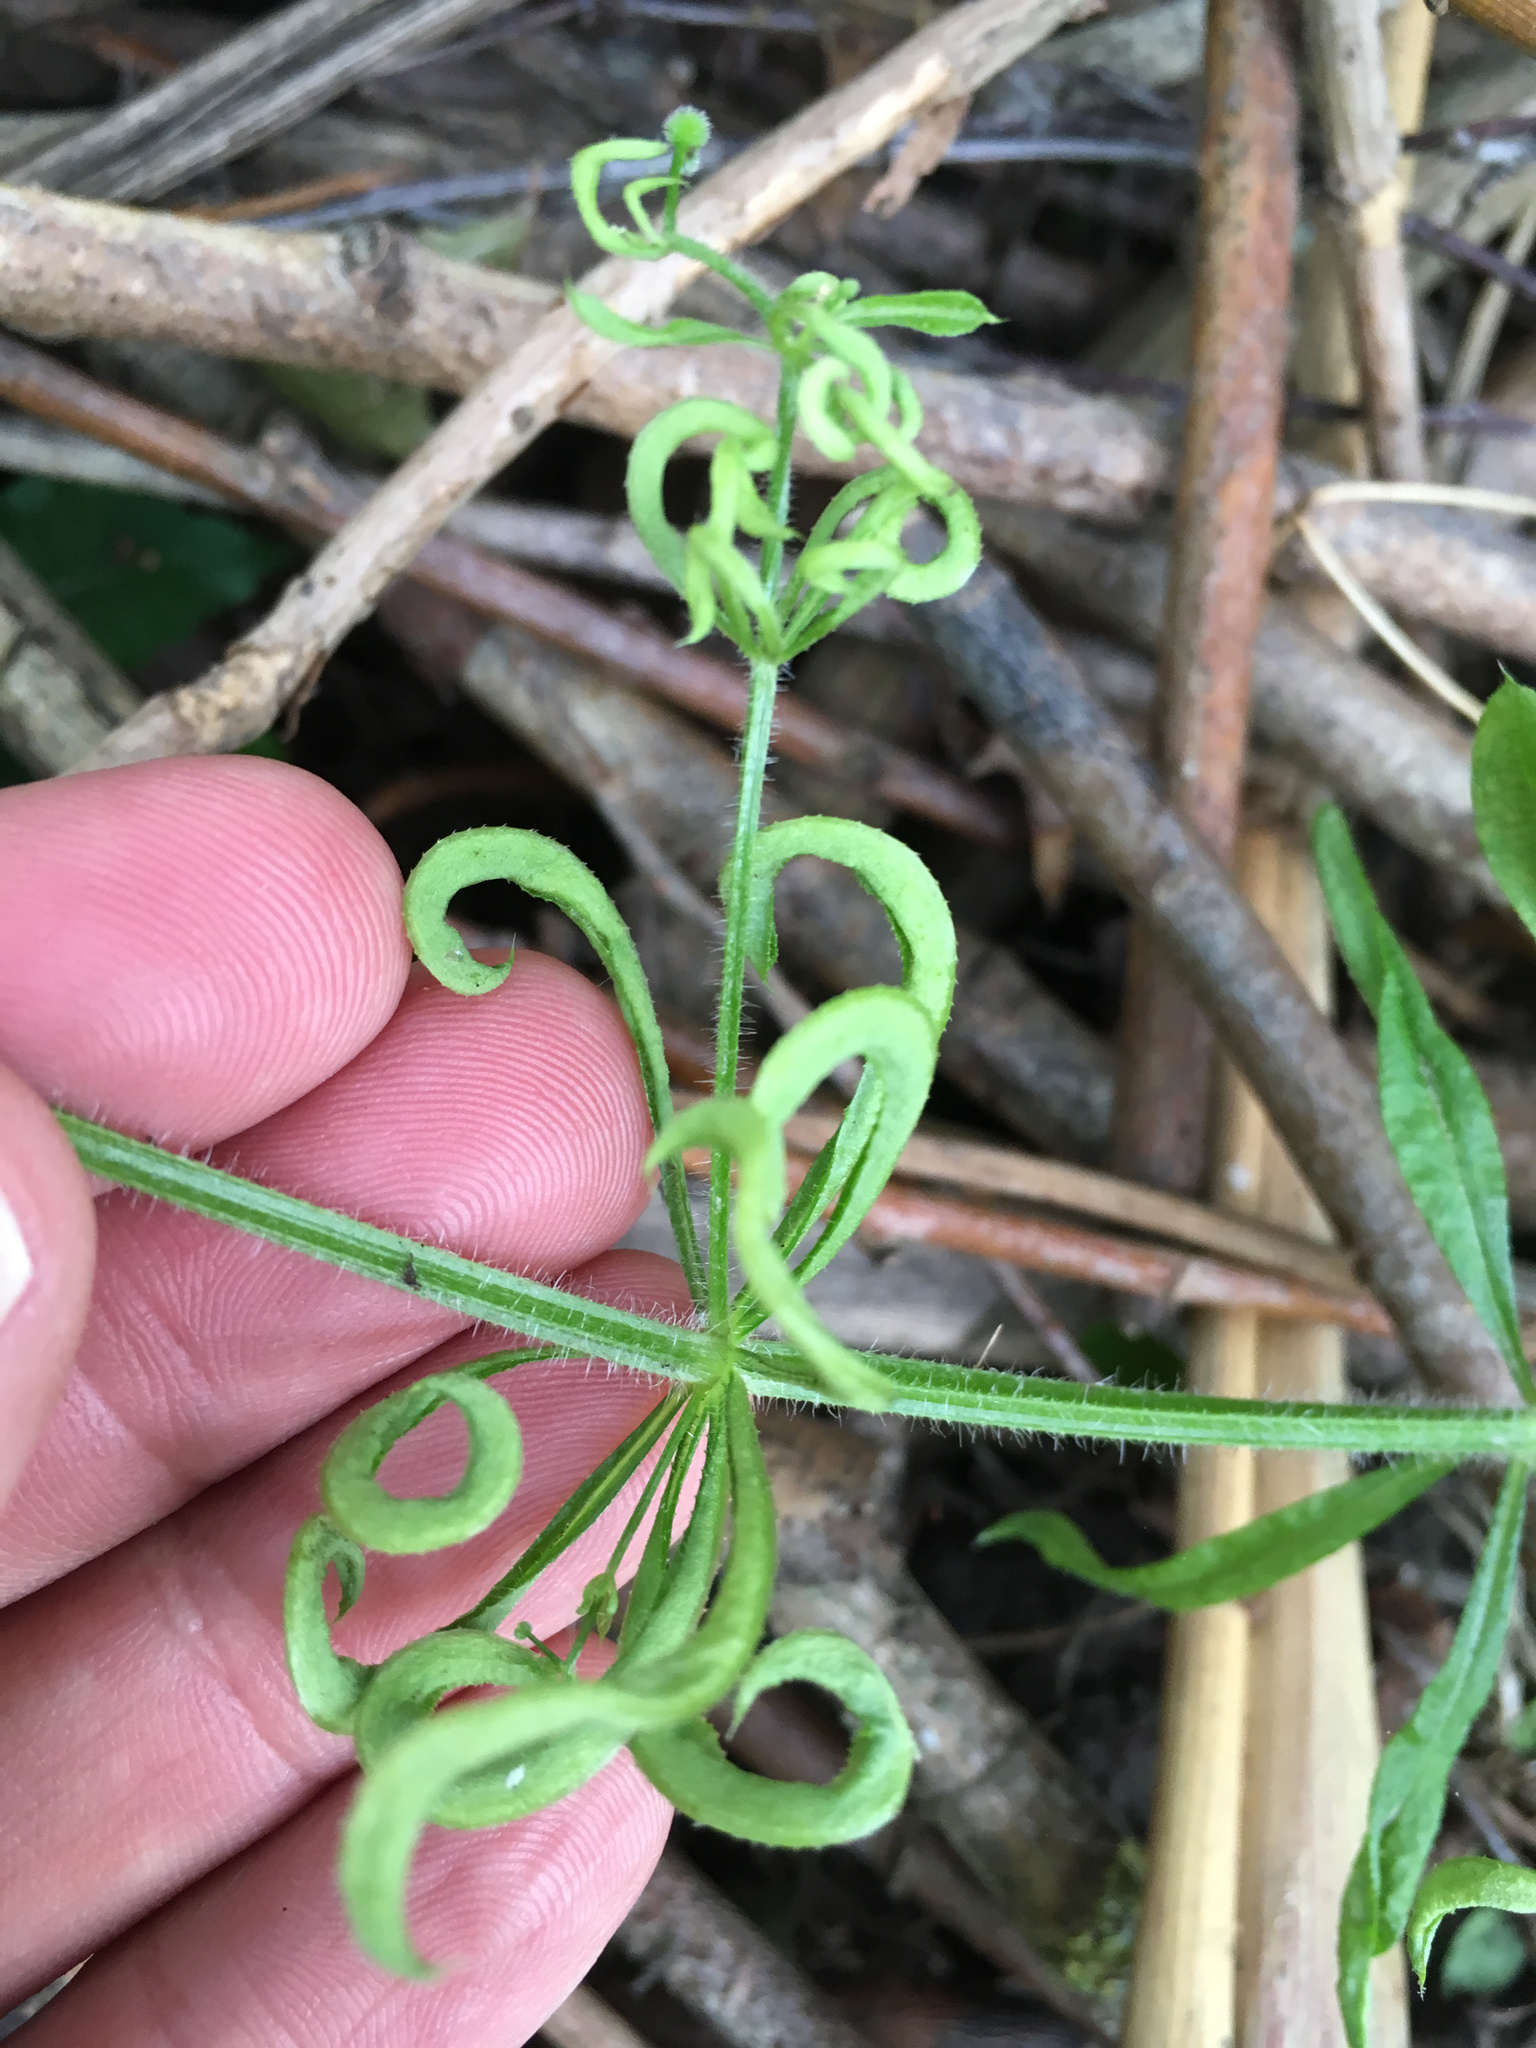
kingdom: Animalia
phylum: Arthropoda
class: Arachnida
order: Trombidiformes
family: Eriophyidae
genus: Cecidophyes
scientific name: Cecidophyes rouhollahi
